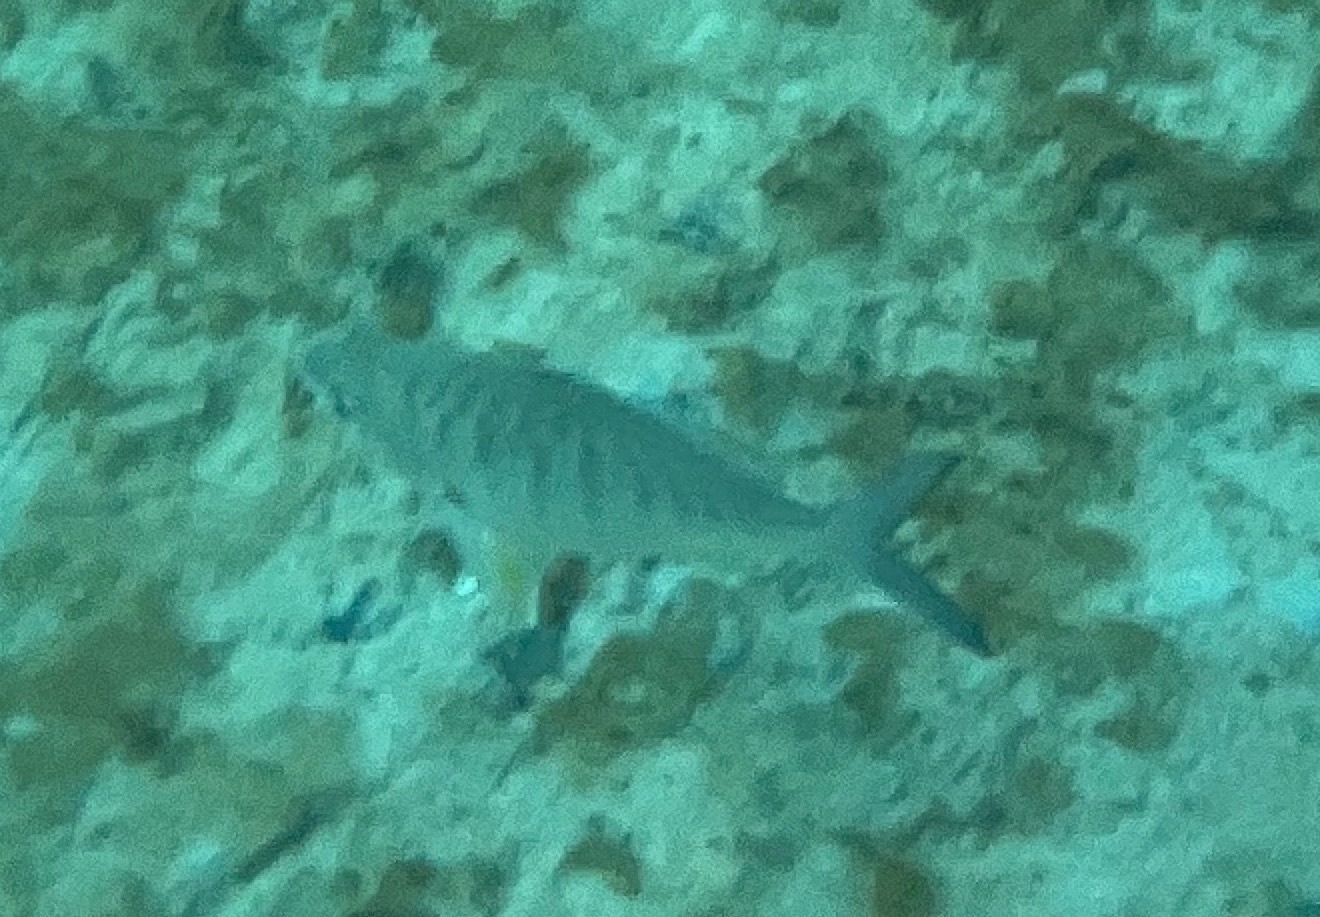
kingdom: Animalia
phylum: Chordata
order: Perciformes
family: Gerreidae
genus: Gerres
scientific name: Gerres cinereus
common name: Hedow
